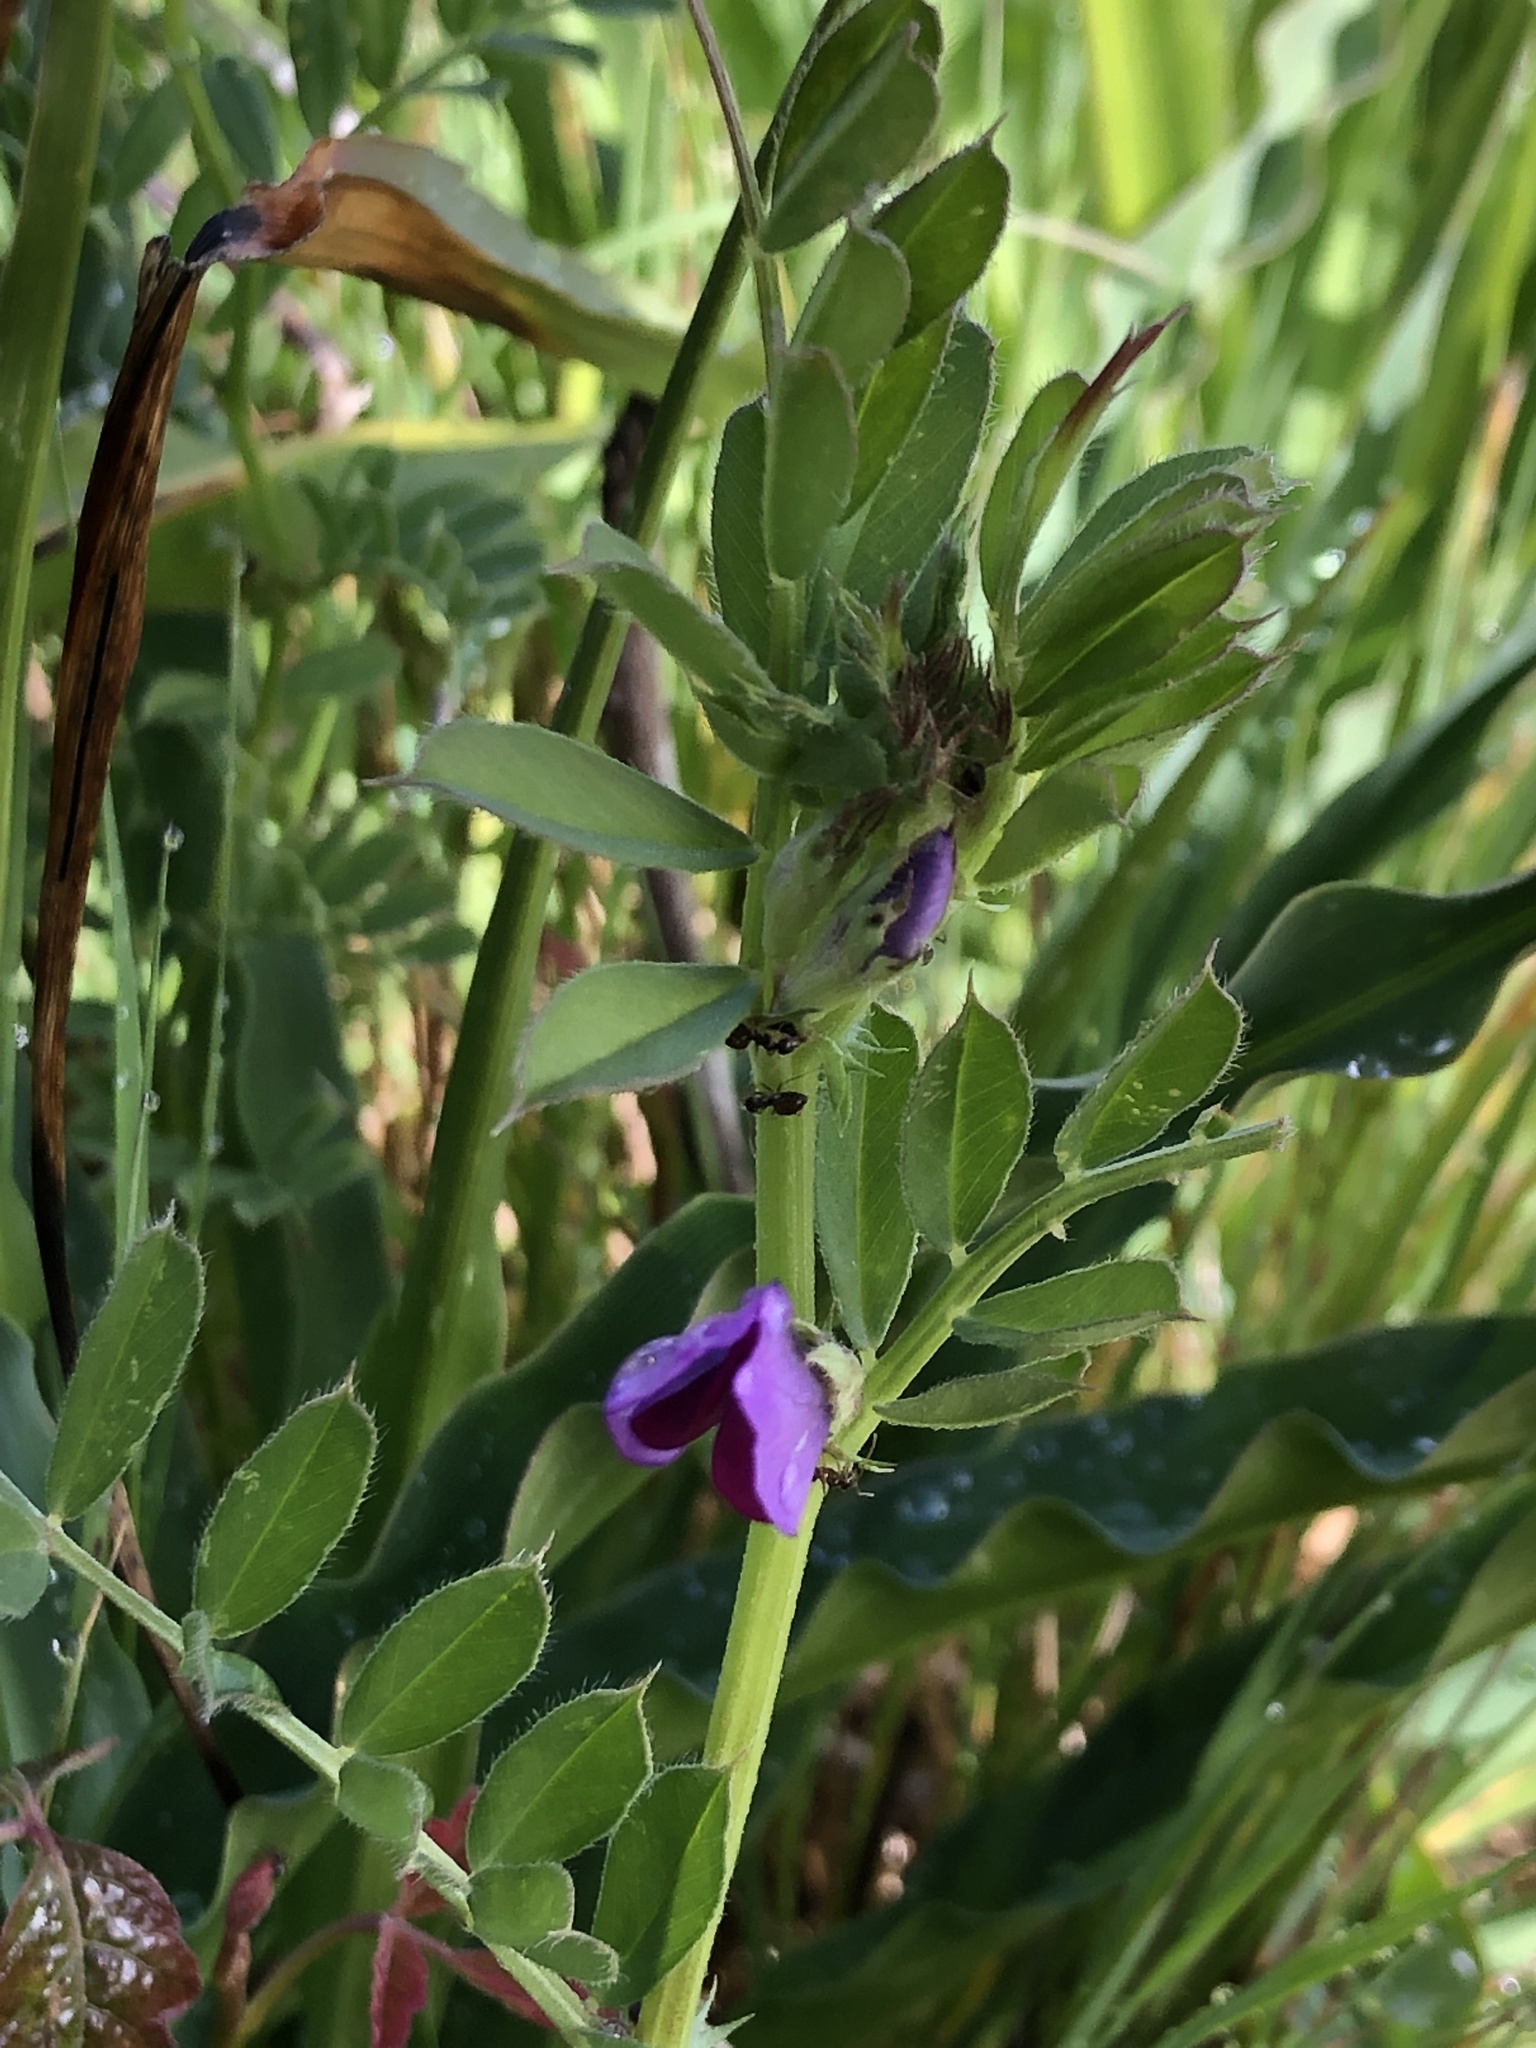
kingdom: Plantae
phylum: Tracheophyta
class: Magnoliopsida
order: Fabales
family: Fabaceae
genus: Vicia
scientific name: Vicia sativa
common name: Garden vetch
